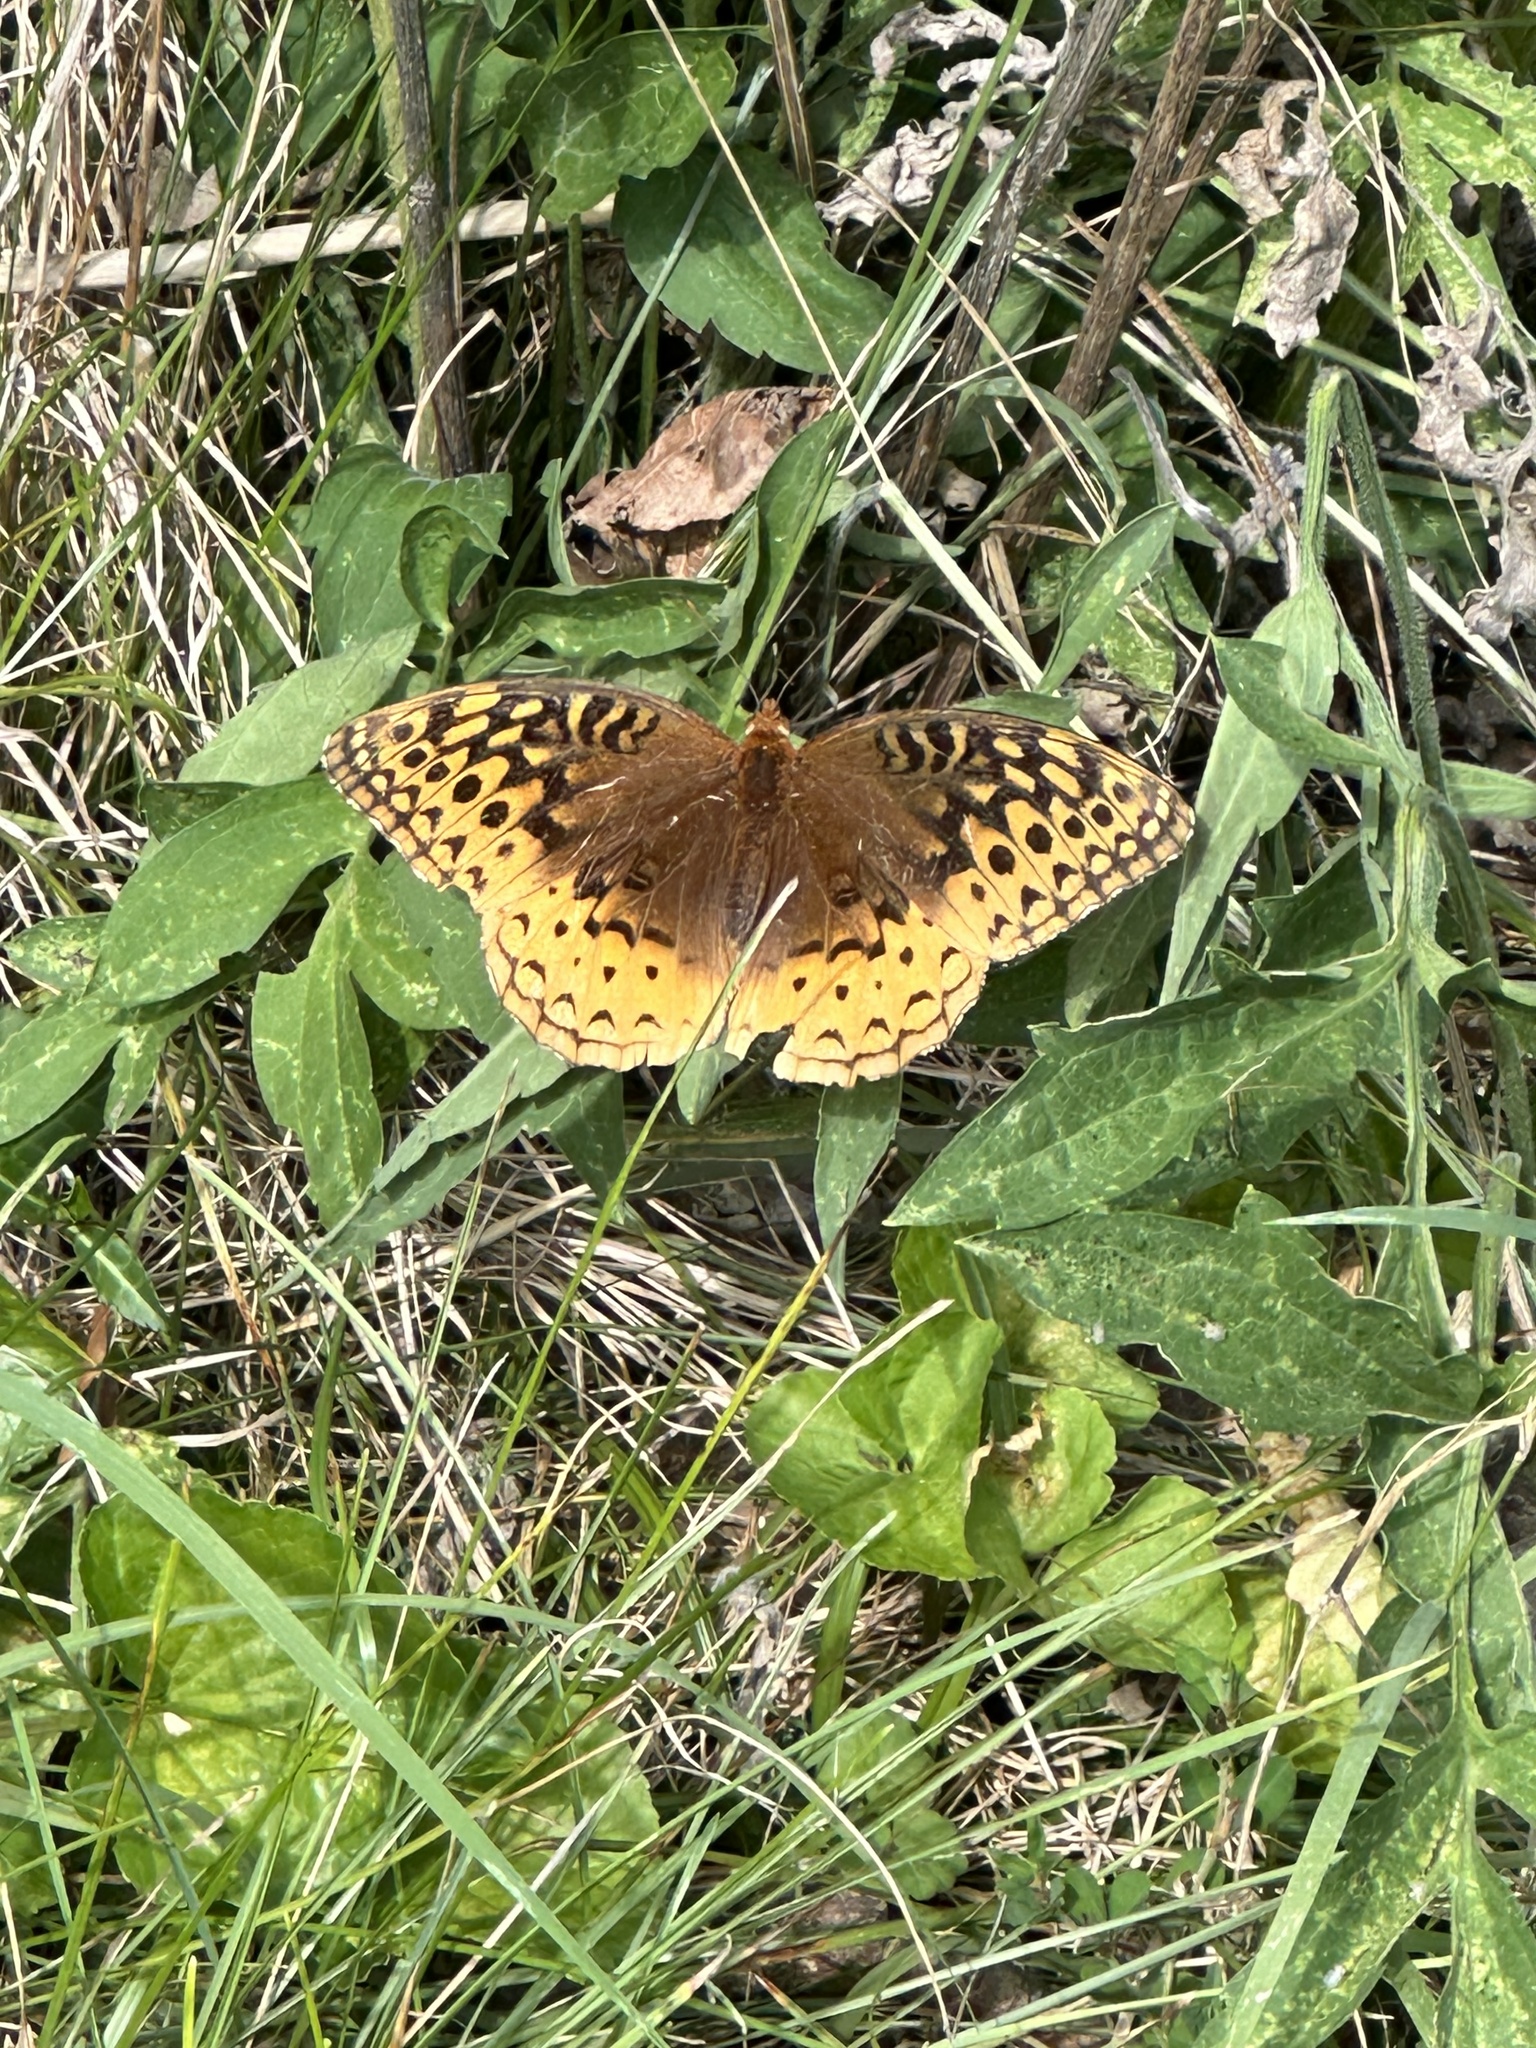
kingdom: Animalia
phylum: Arthropoda
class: Insecta
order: Lepidoptera
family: Nymphalidae
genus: Speyeria
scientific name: Speyeria cybele
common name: Great spangled fritillary
